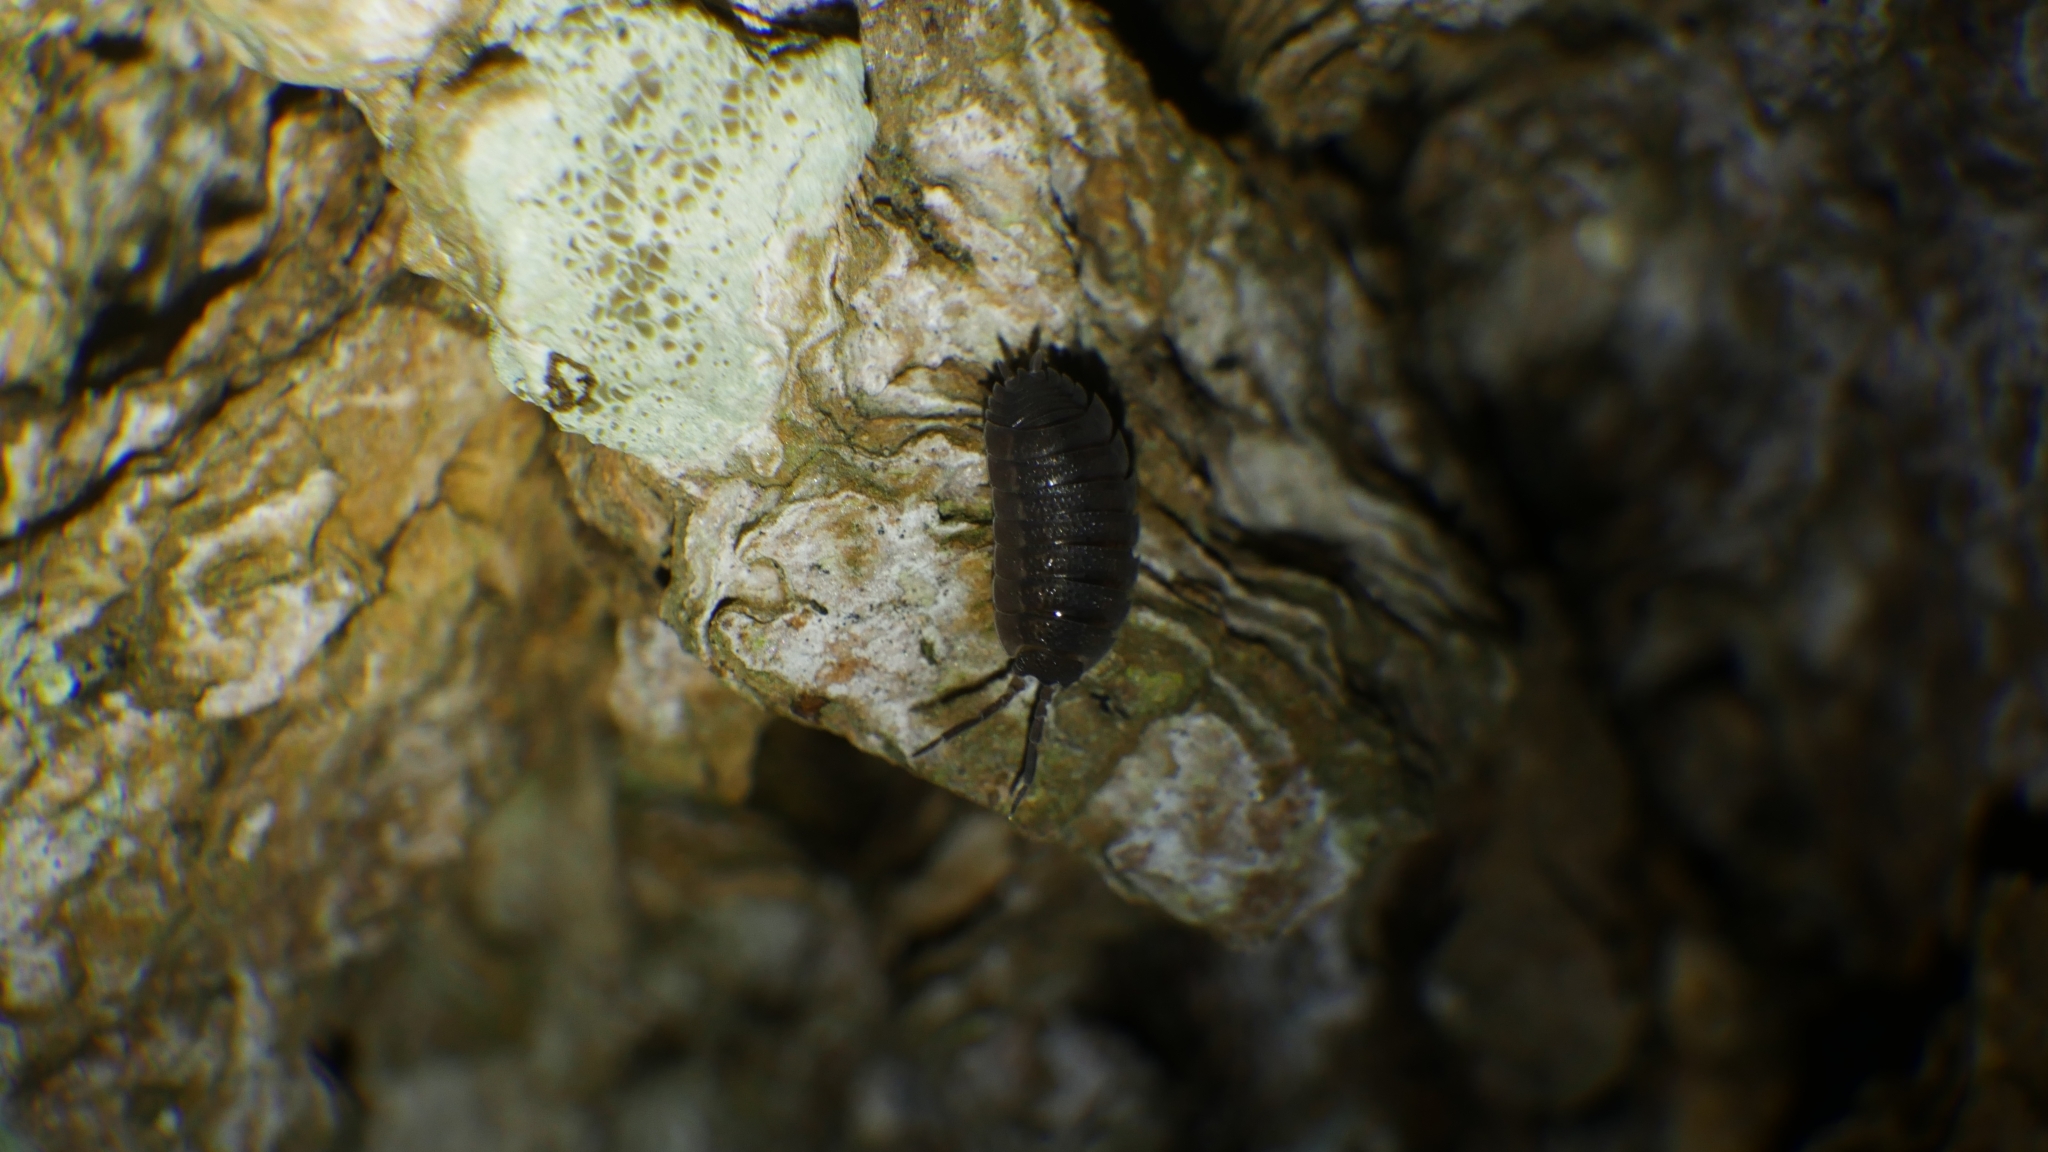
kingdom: Animalia
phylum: Arthropoda
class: Malacostraca
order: Isopoda
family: Porcellionidae
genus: Porcellio
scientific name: Porcellio scaber
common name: Common rough woodlouse
